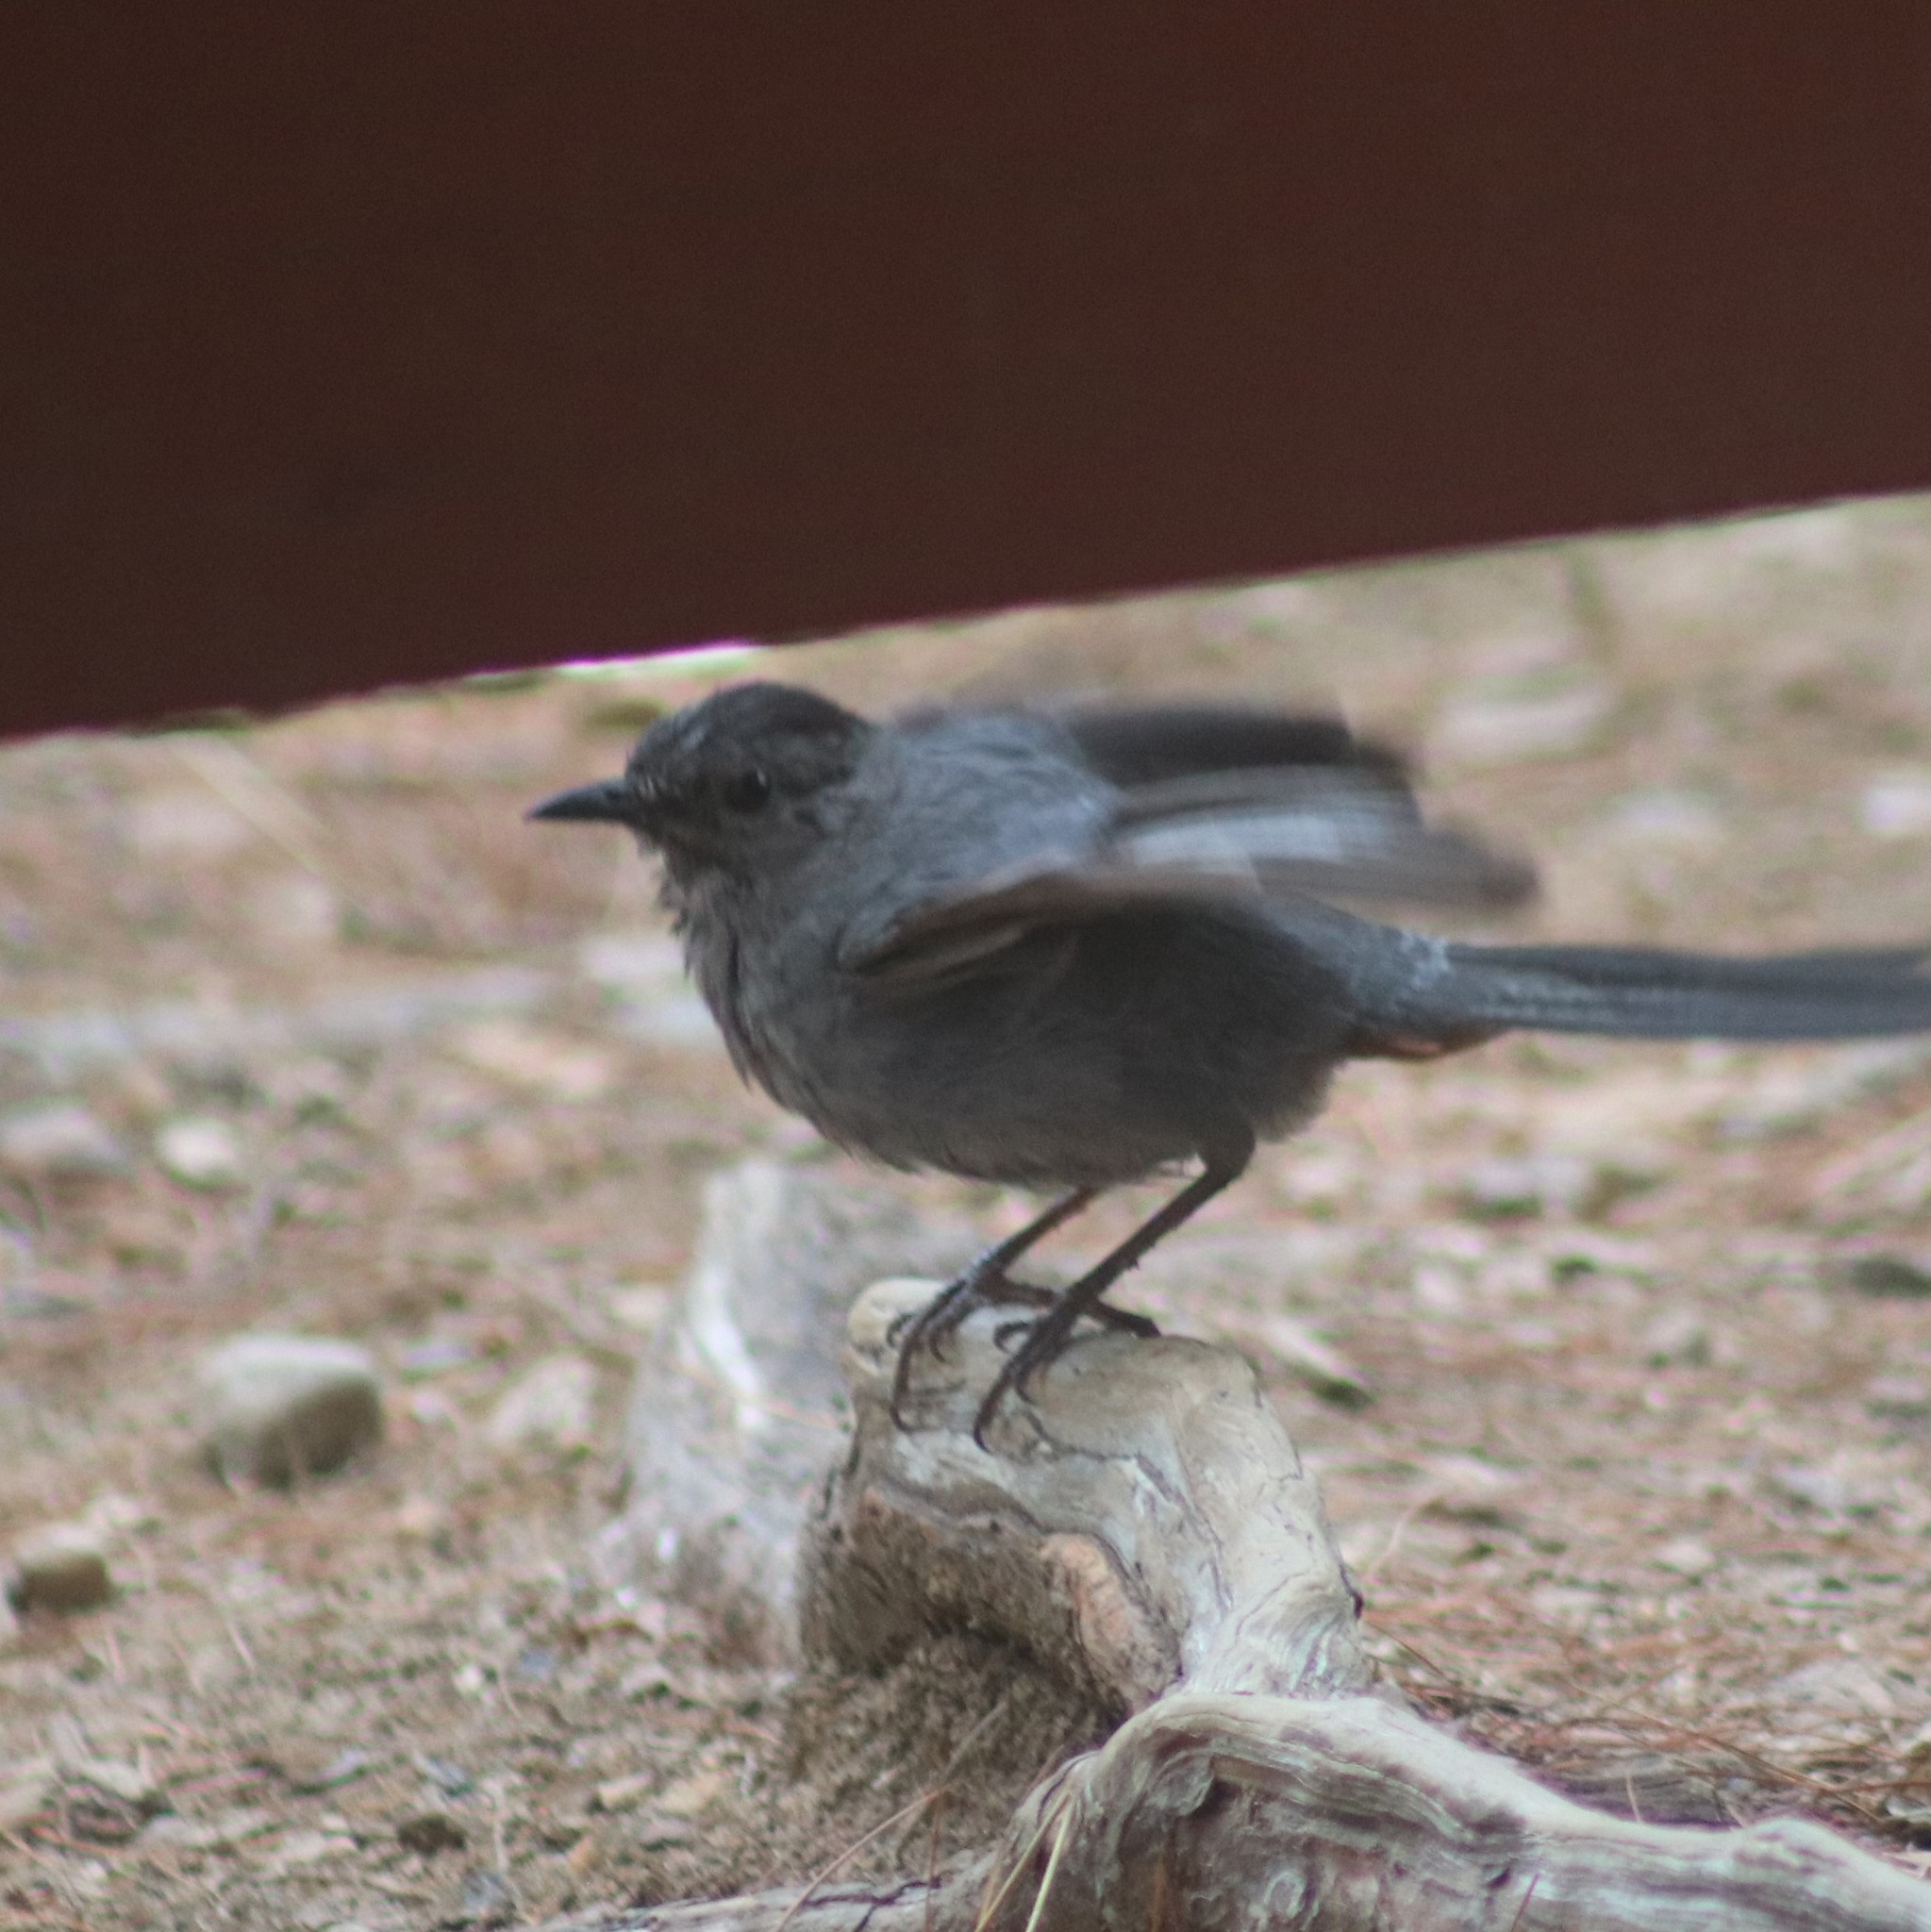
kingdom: Animalia
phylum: Chordata
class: Aves
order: Passeriformes
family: Mimidae
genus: Dumetella
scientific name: Dumetella carolinensis
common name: Gray catbird
